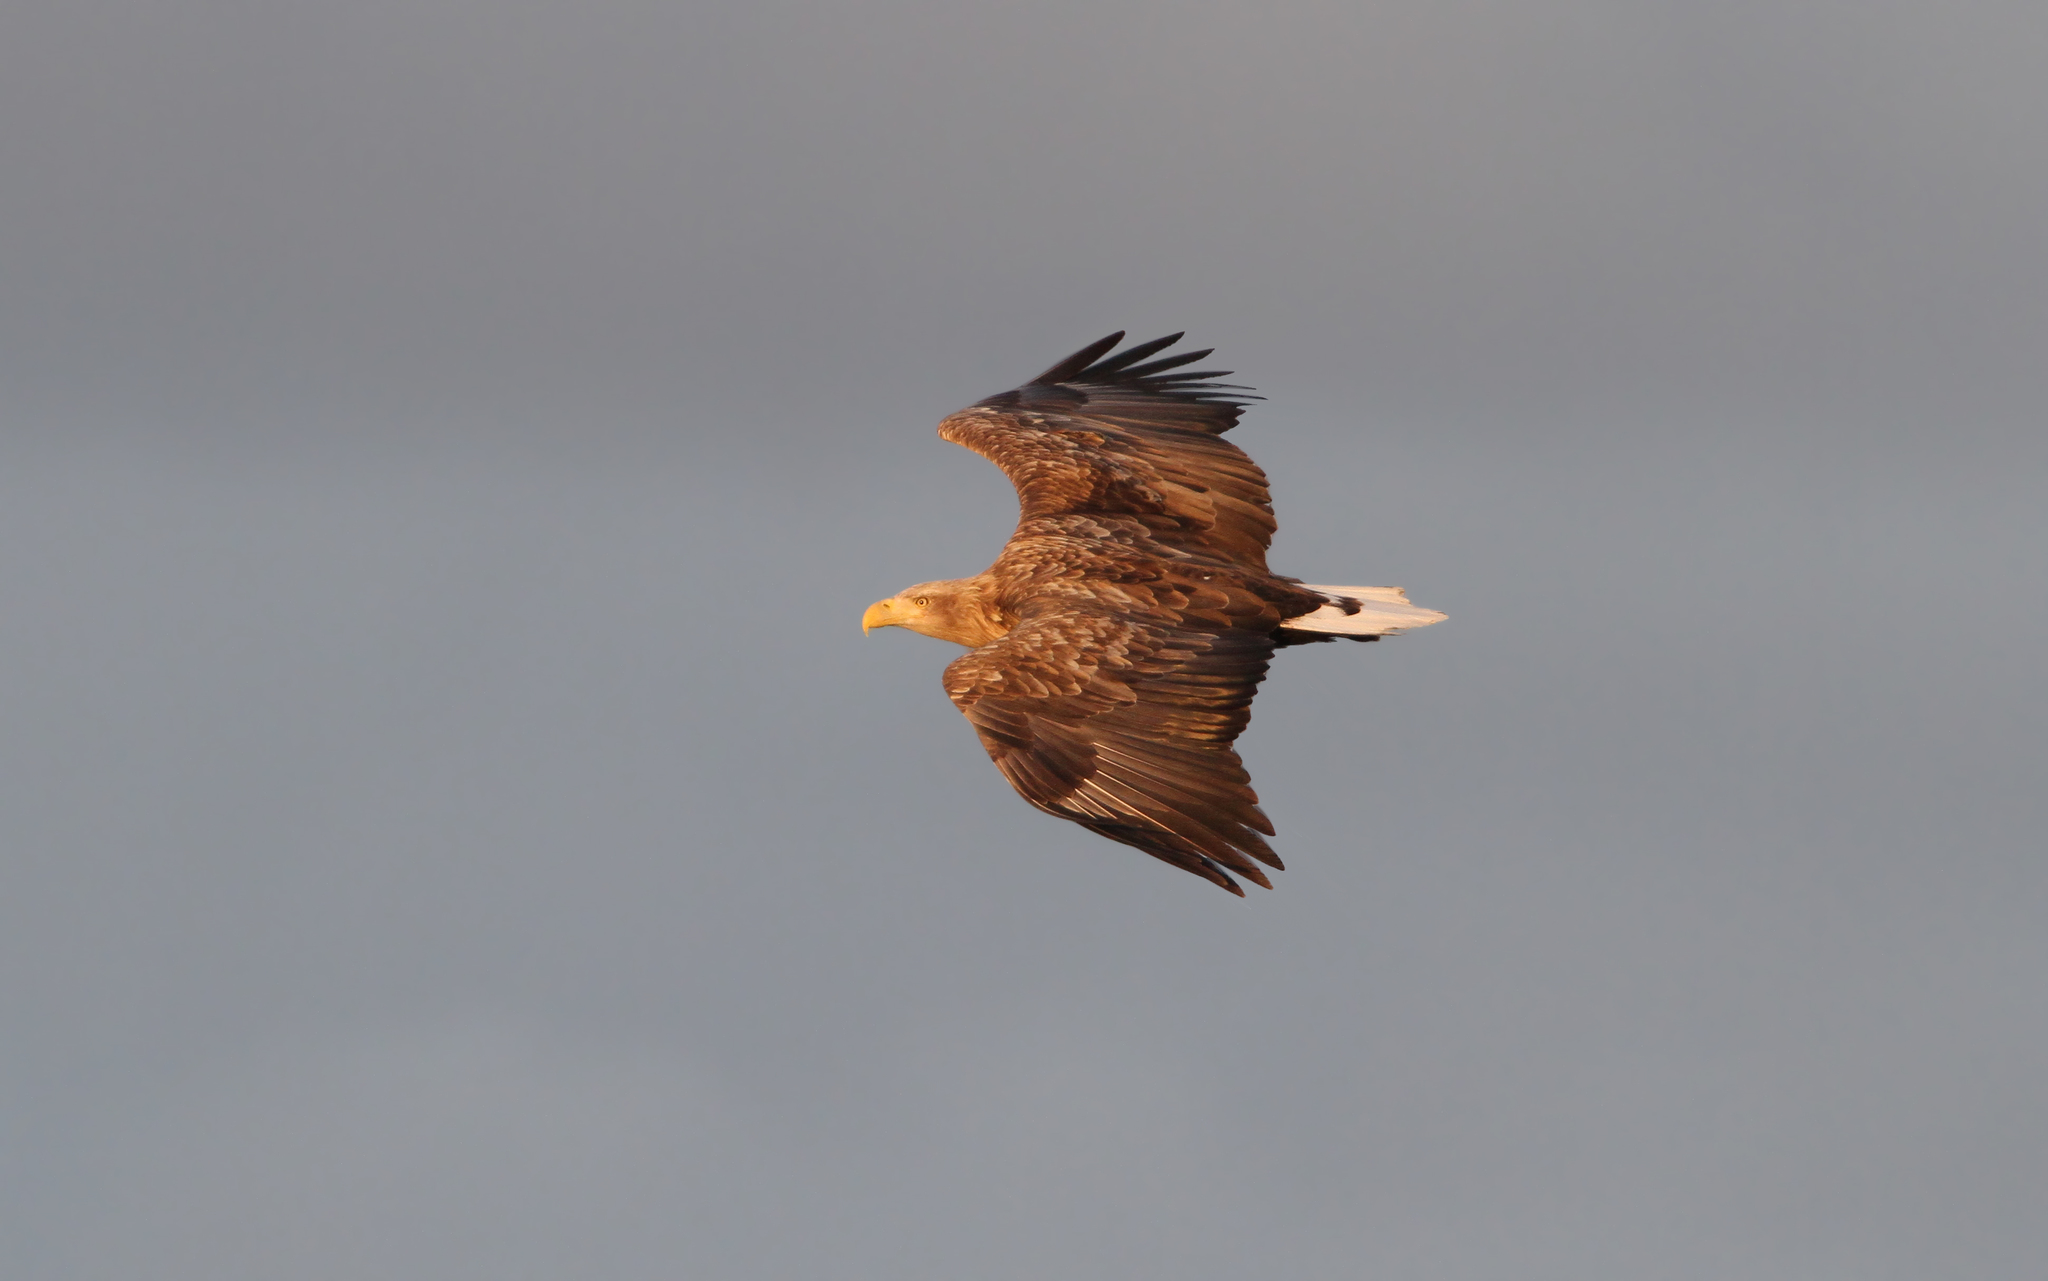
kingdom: Animalia
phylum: Chordata
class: Aves
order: Accipitriformes
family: Accipitridae
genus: Haliaeetus
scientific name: Haliaeetus albicilla
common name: White-tailed eagle
